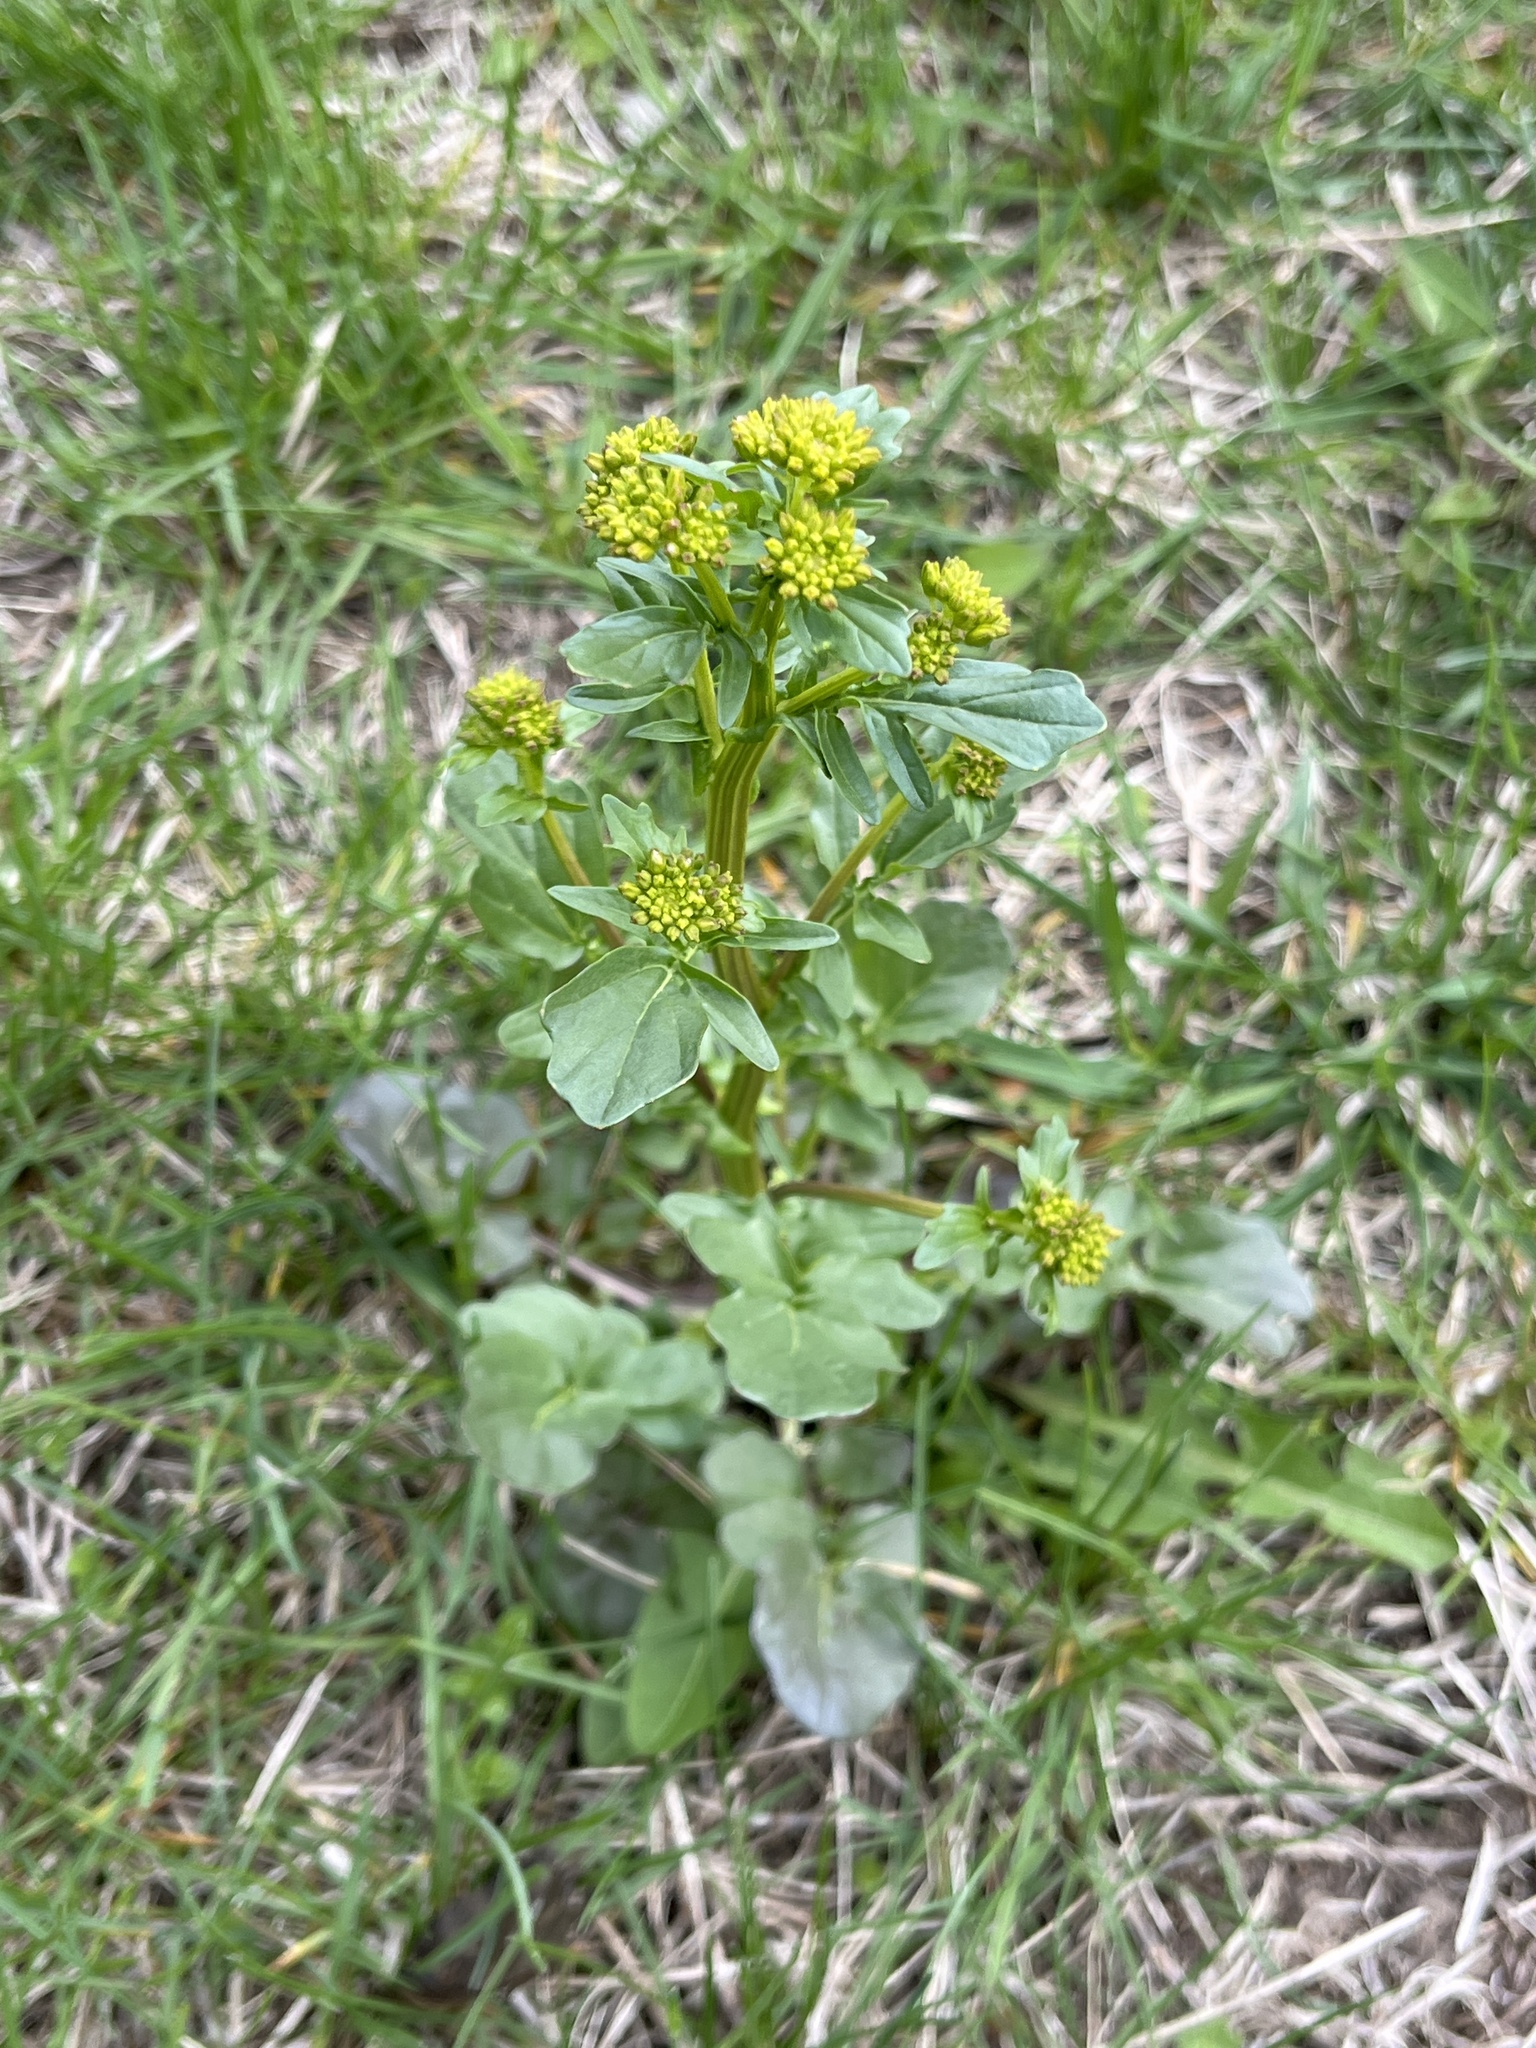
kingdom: Plantae
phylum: Tracheophyta
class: Magnoliopsida
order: Brassicales
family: Brassicaceae
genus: Barbarea
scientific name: Barbarea vulgaris
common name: Cressy-greens
